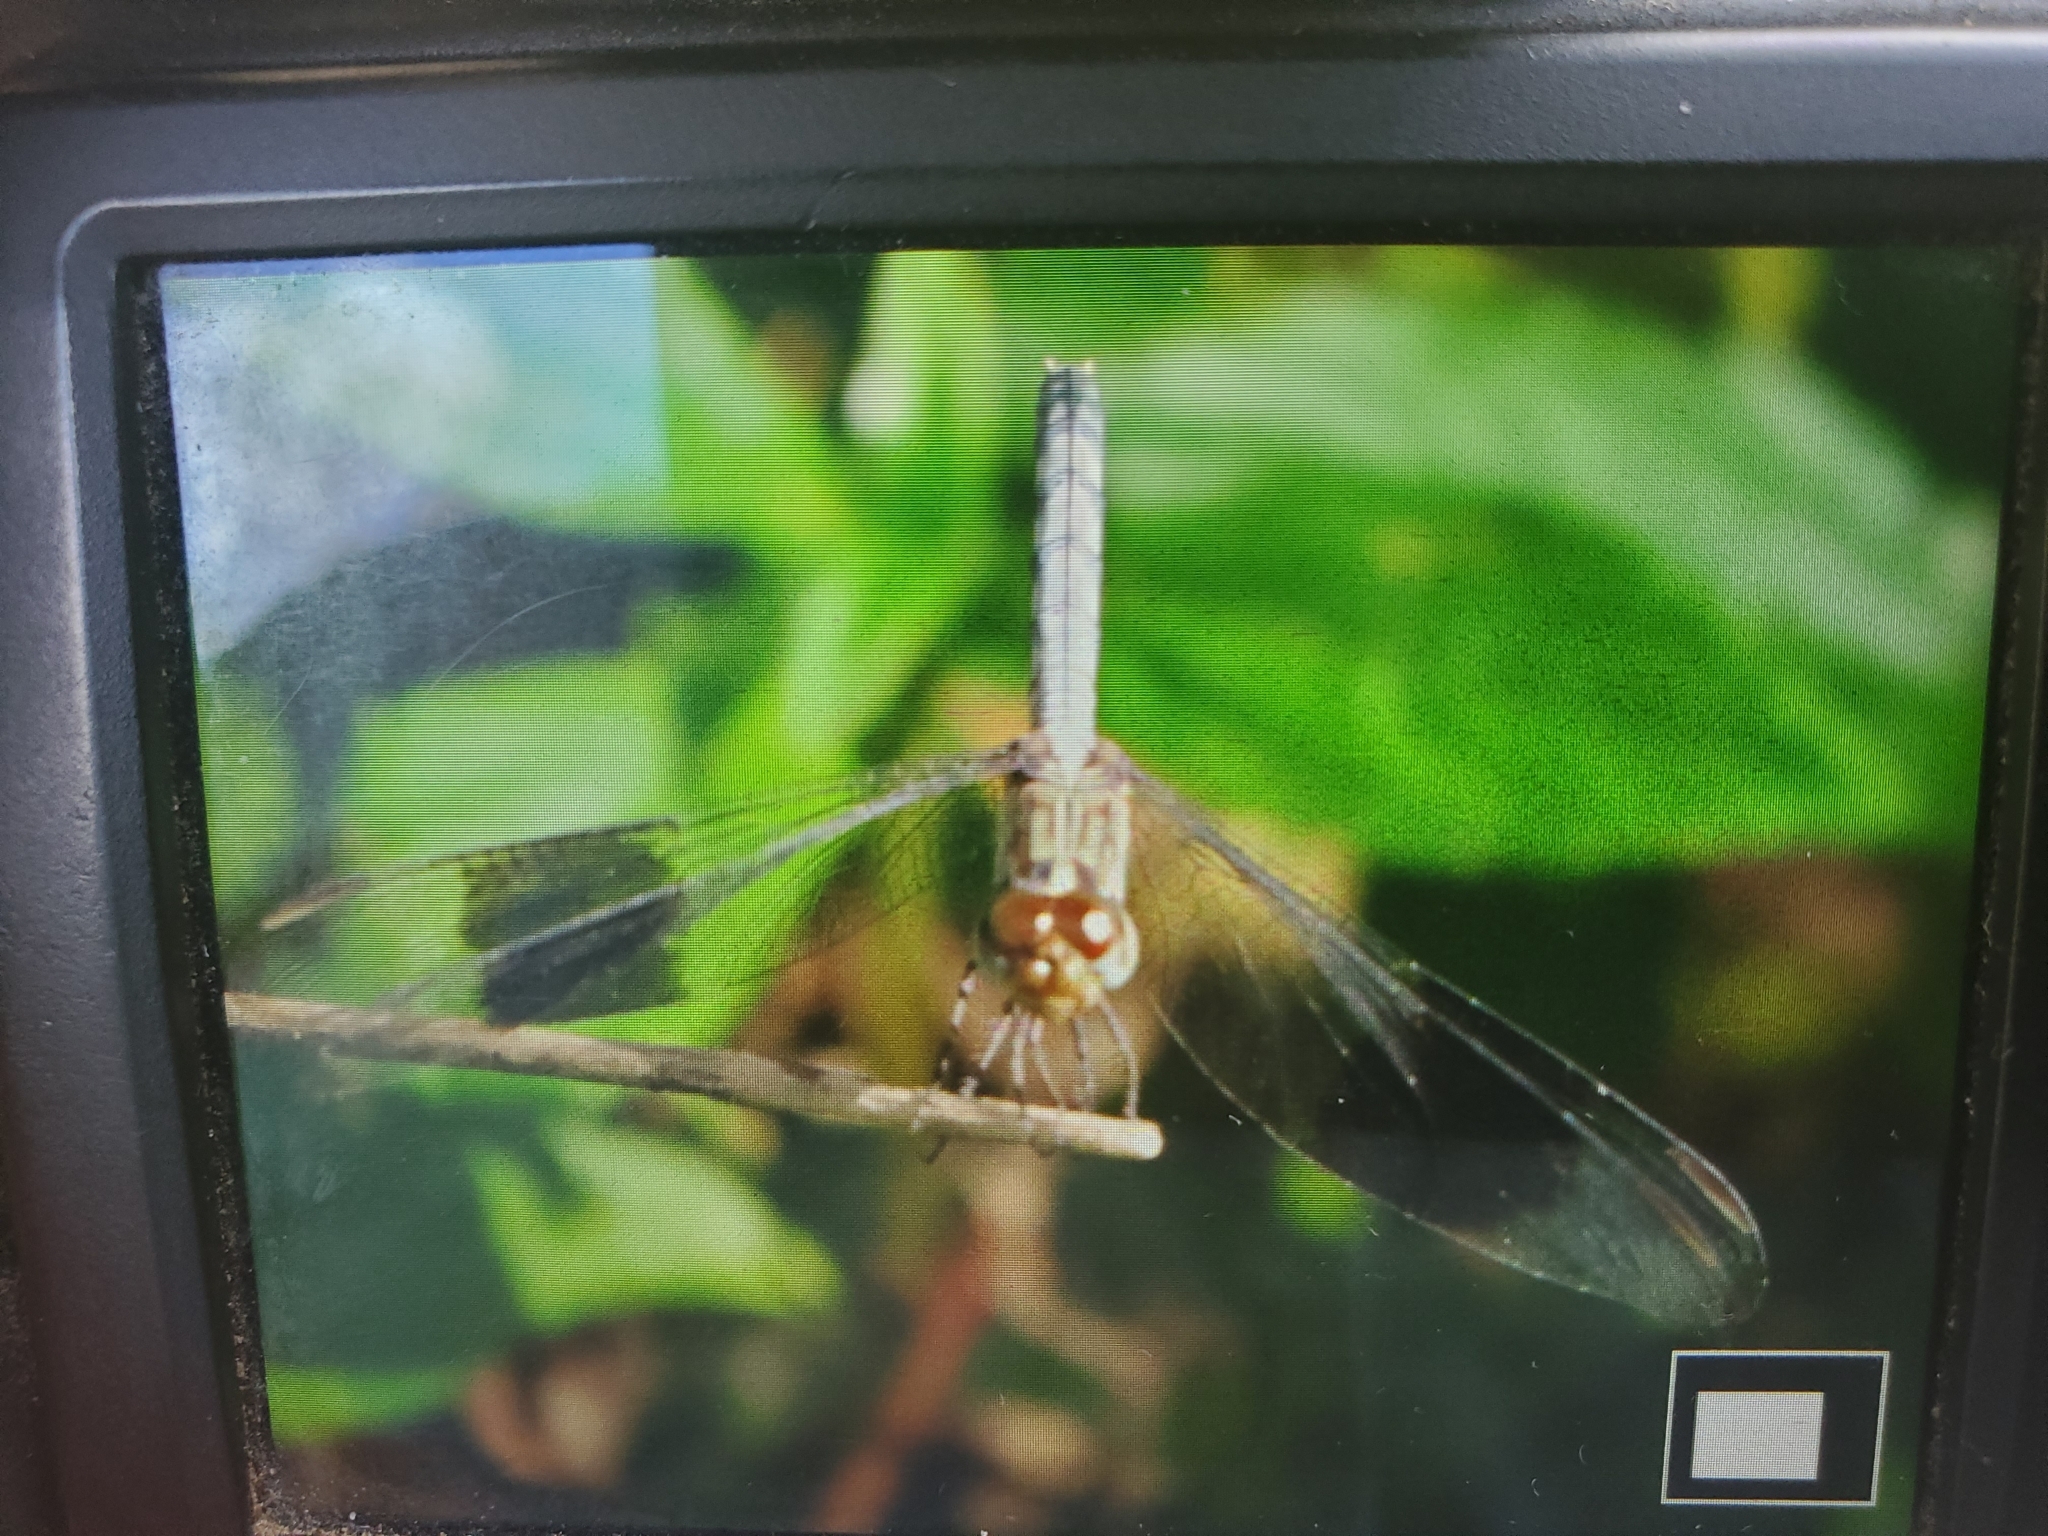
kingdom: Animalia
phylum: Arthropoda
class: Insecta
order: Odonata
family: Libellulidae
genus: Erythrodiplax
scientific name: Erythrodiplax umbrata
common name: Band-winged dragonlet
